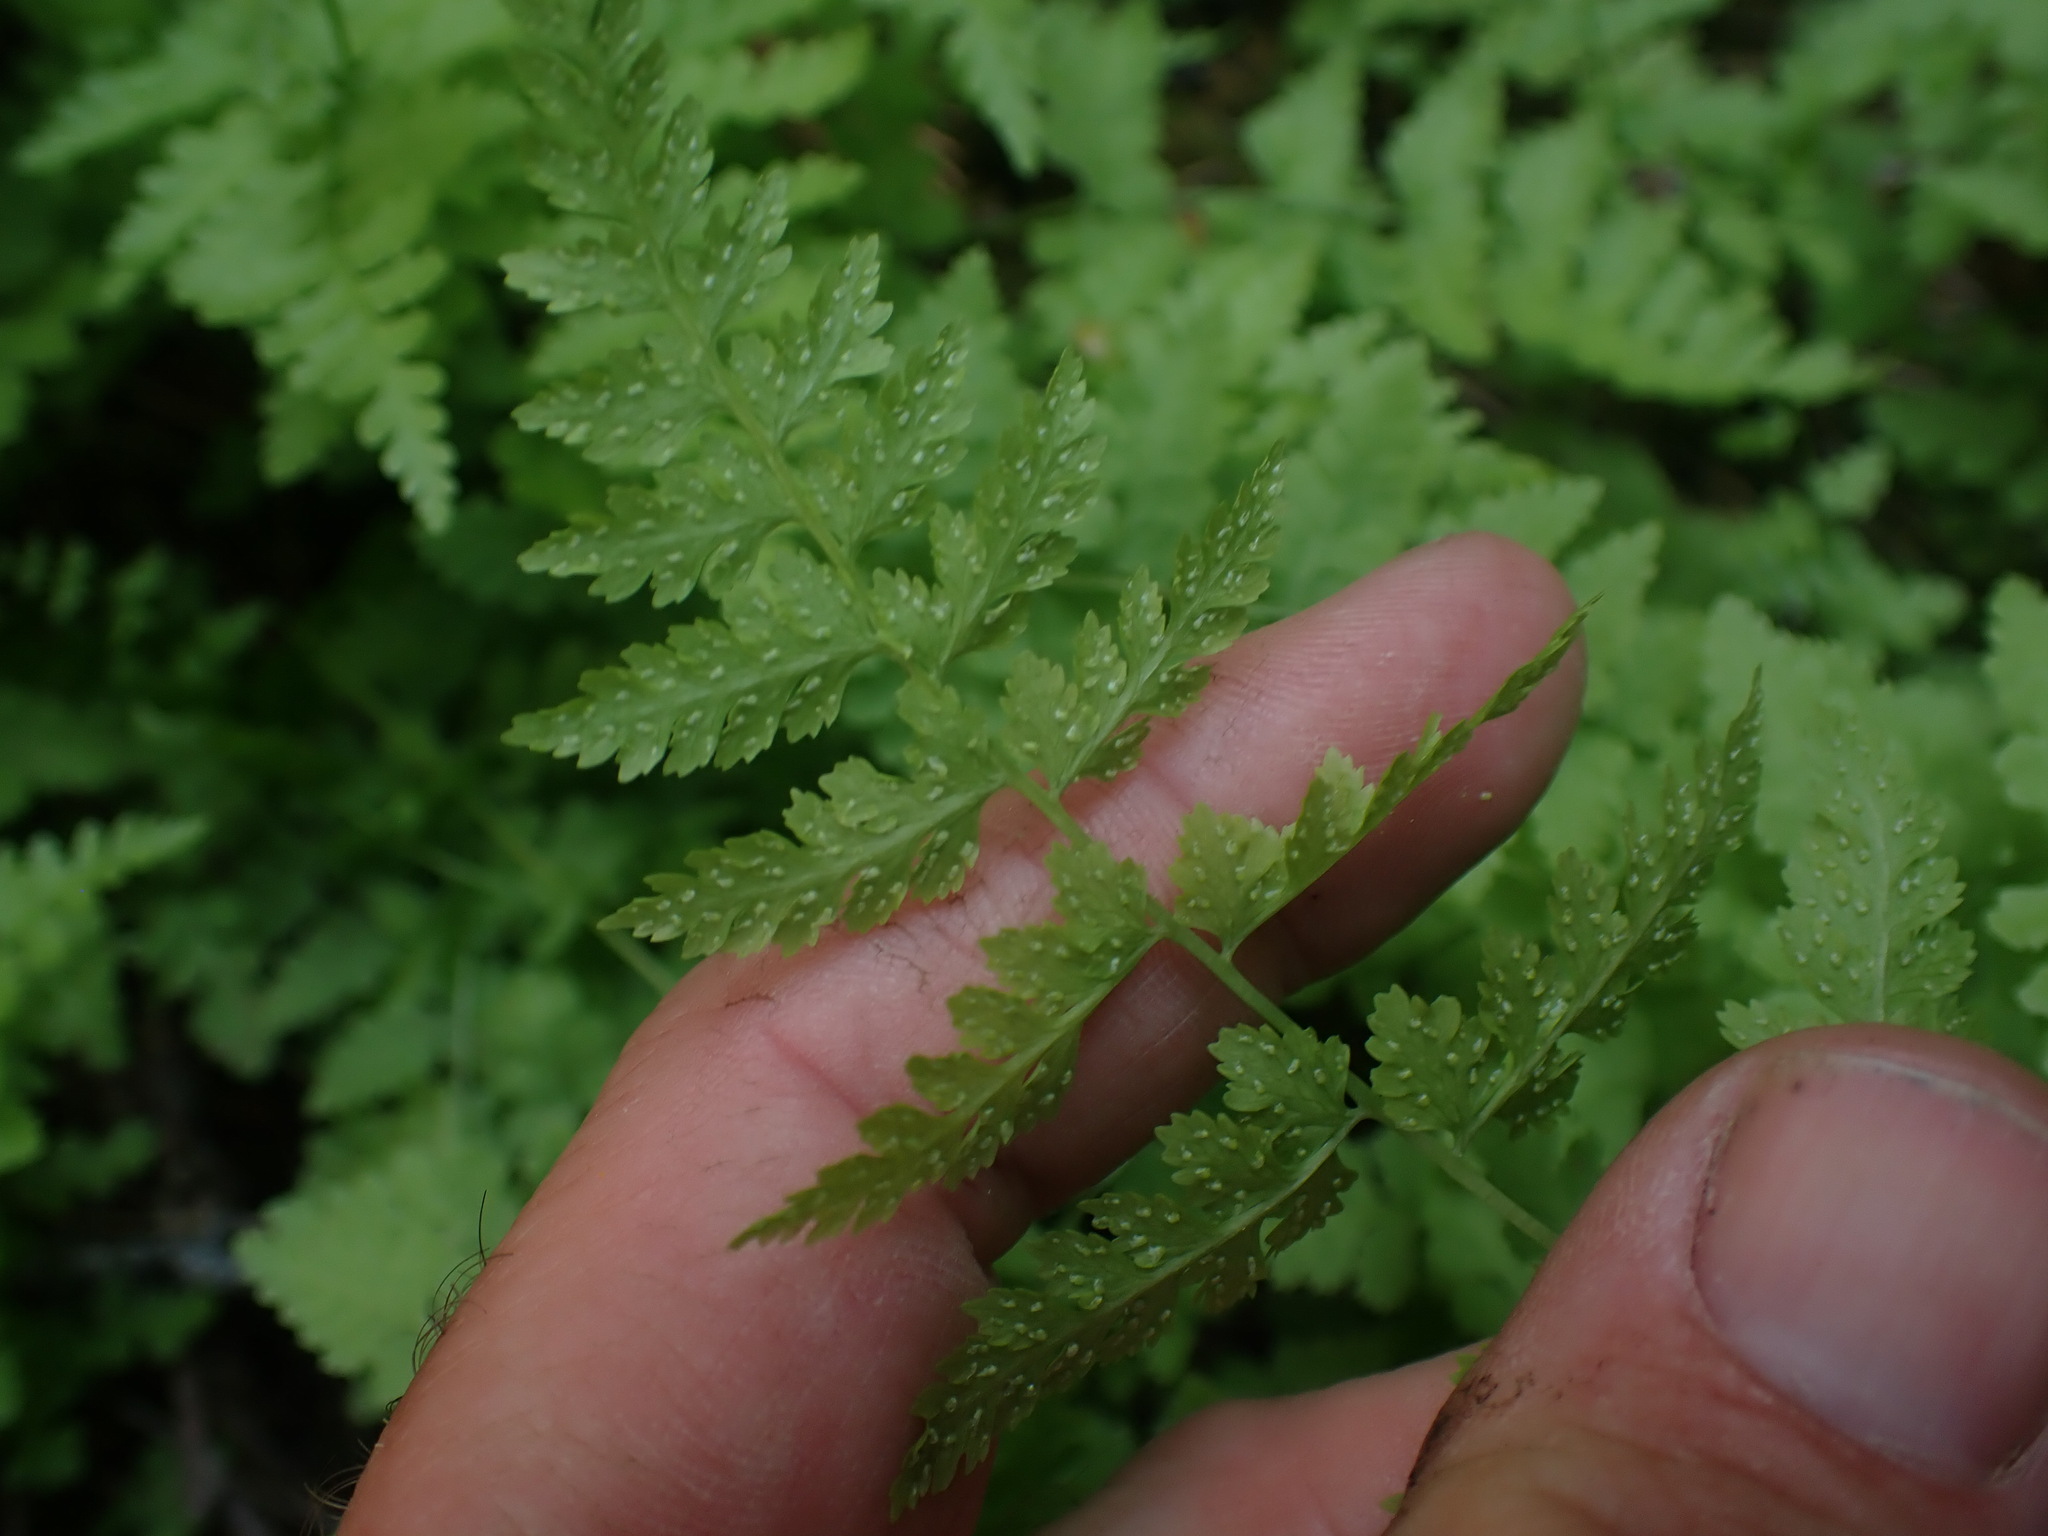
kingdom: Plantae
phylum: Tracheophyta
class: Polypodiopsida
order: Polypodiales
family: Cystopteridaceae
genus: Cystopteris
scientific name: Cystopteris fragilis
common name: Brittle bladder fern
